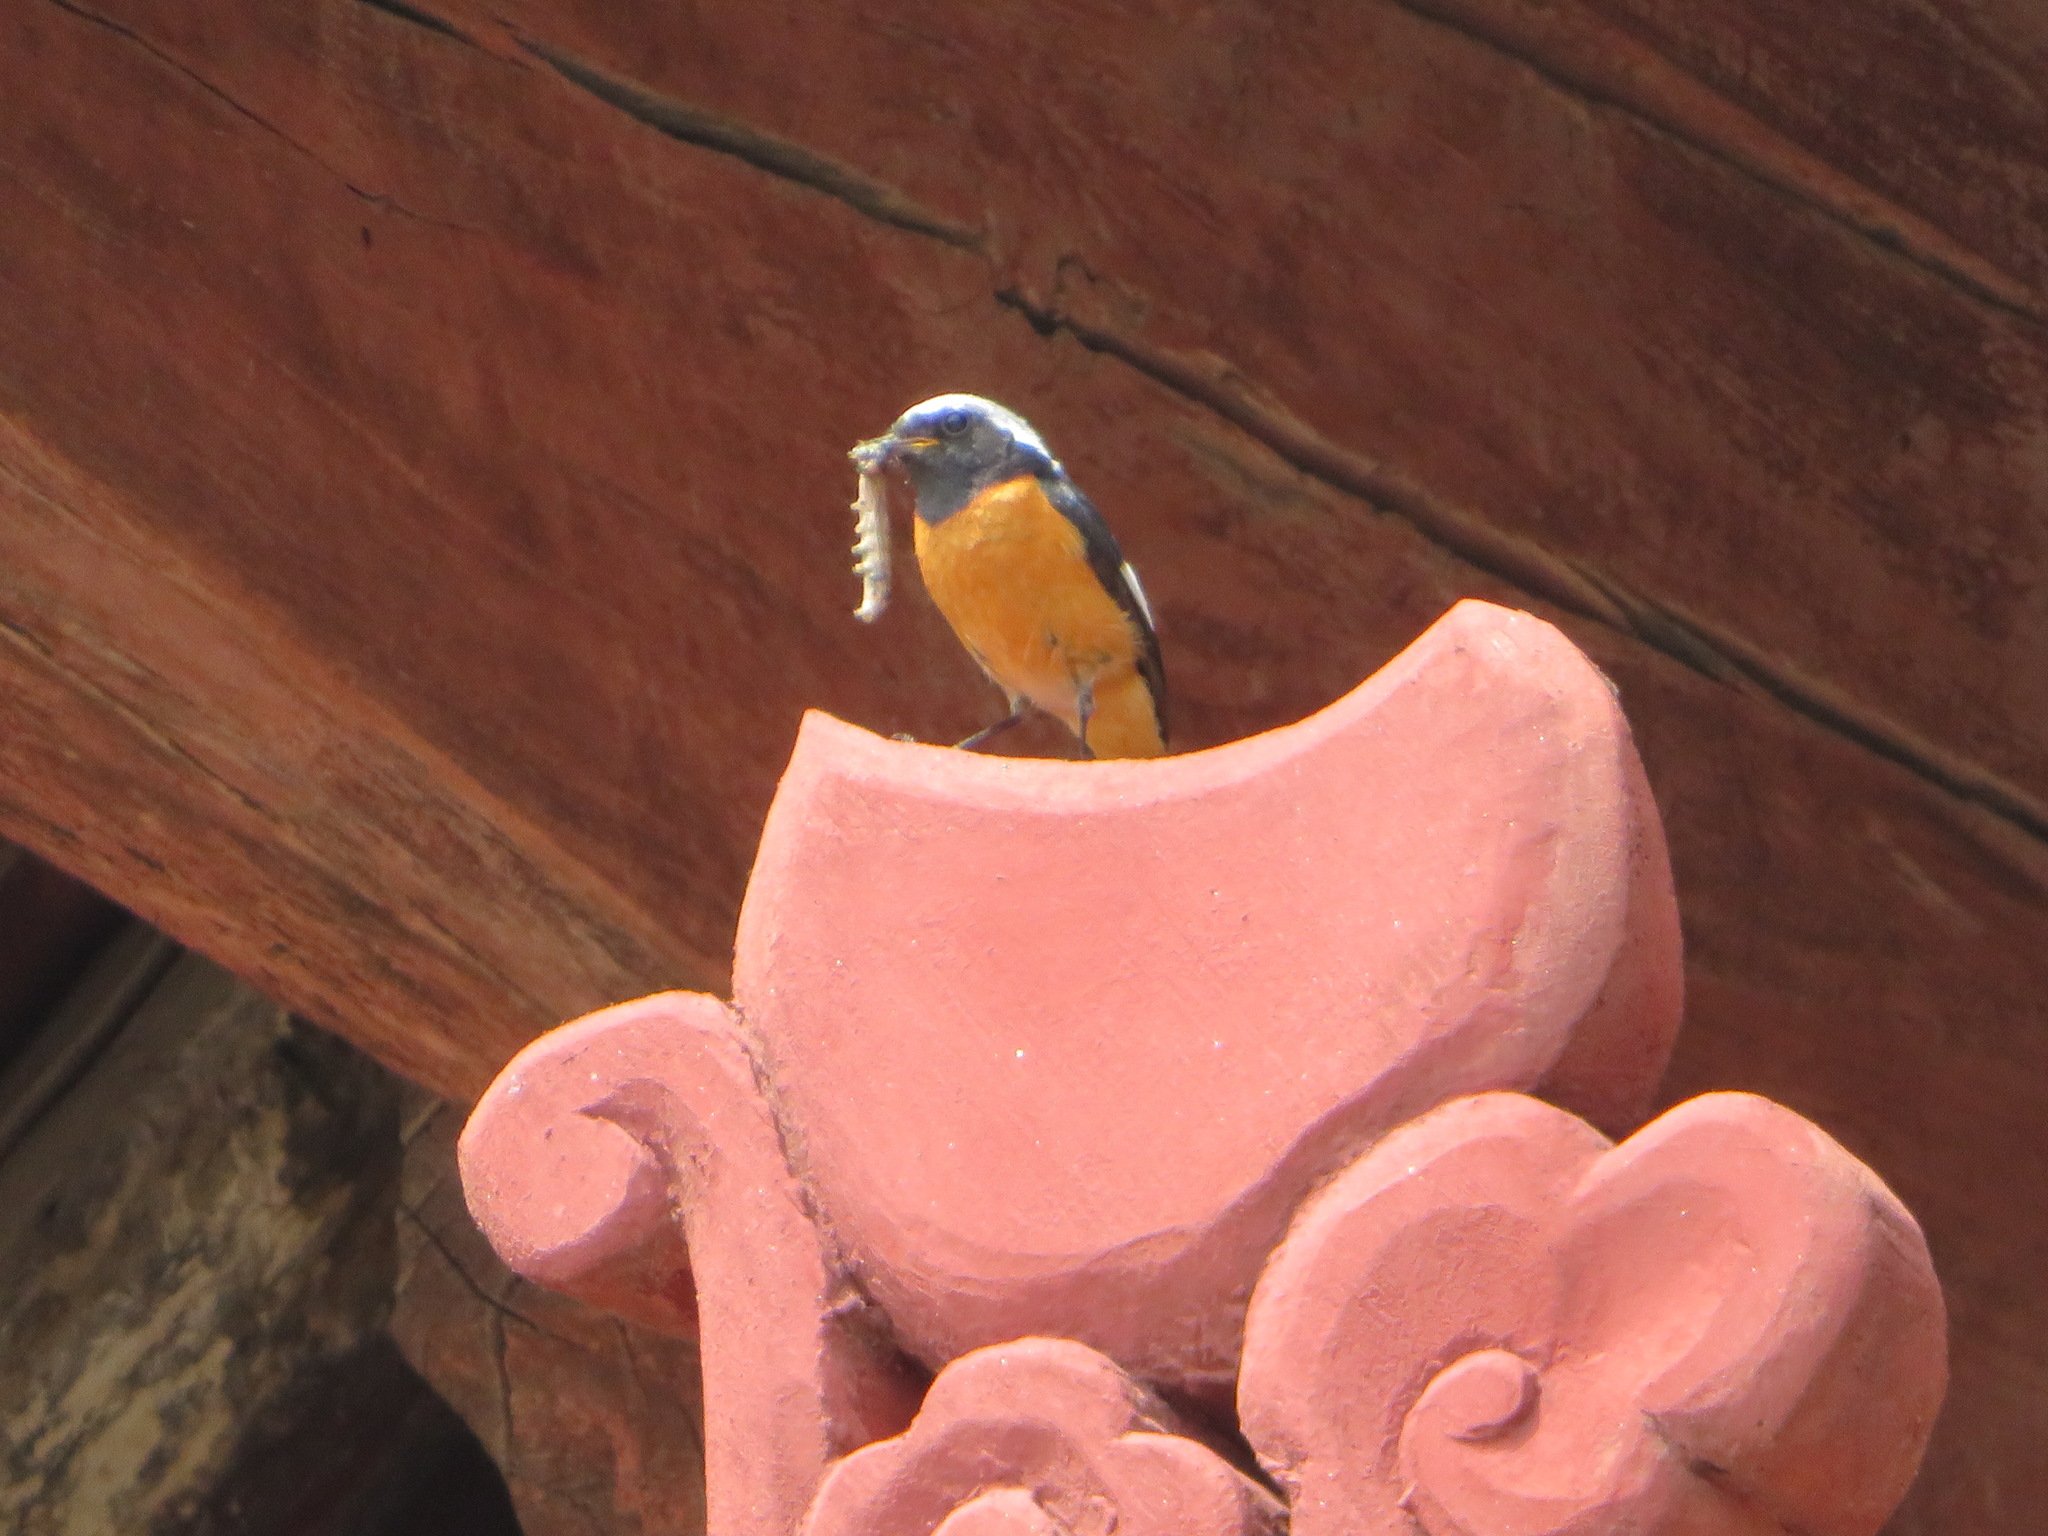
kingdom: Animalia
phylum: Chordata
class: Aves
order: Passeriformes
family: Muscicapidae
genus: Phoenicurus
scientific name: Phoenicurus auroreus
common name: Daurian redstart
